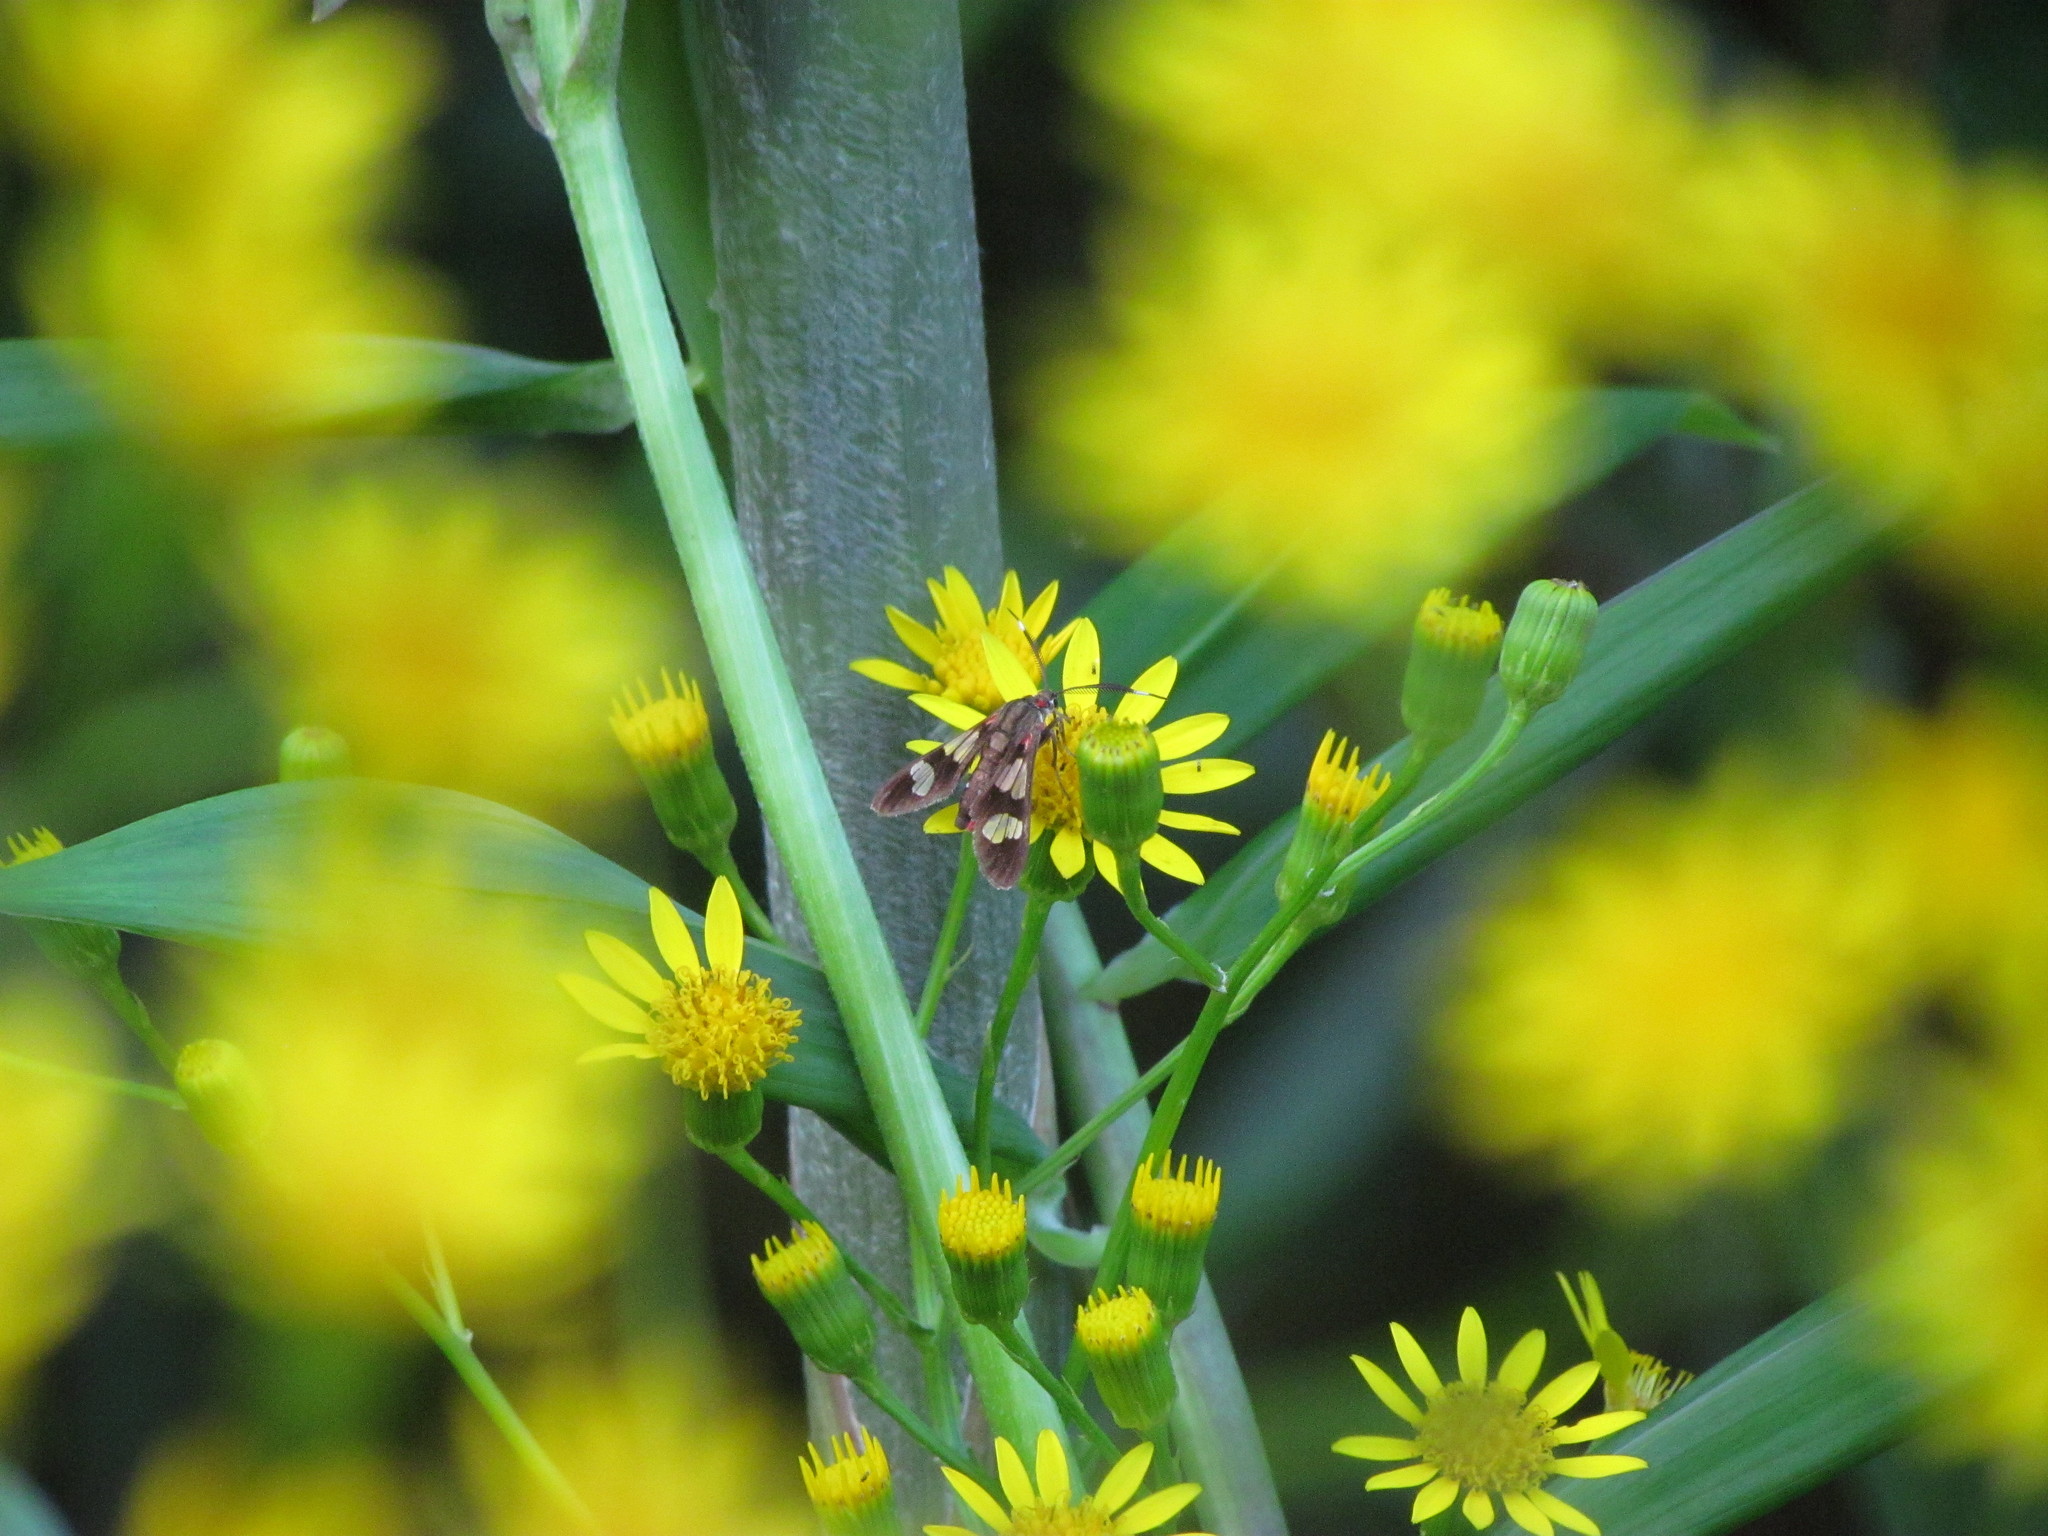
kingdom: Animalia
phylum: Arthropoda
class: Insecta
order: Lepidoptera
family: Erebidae
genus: Phoenicoprocta
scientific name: Phoenicoprocta teda
